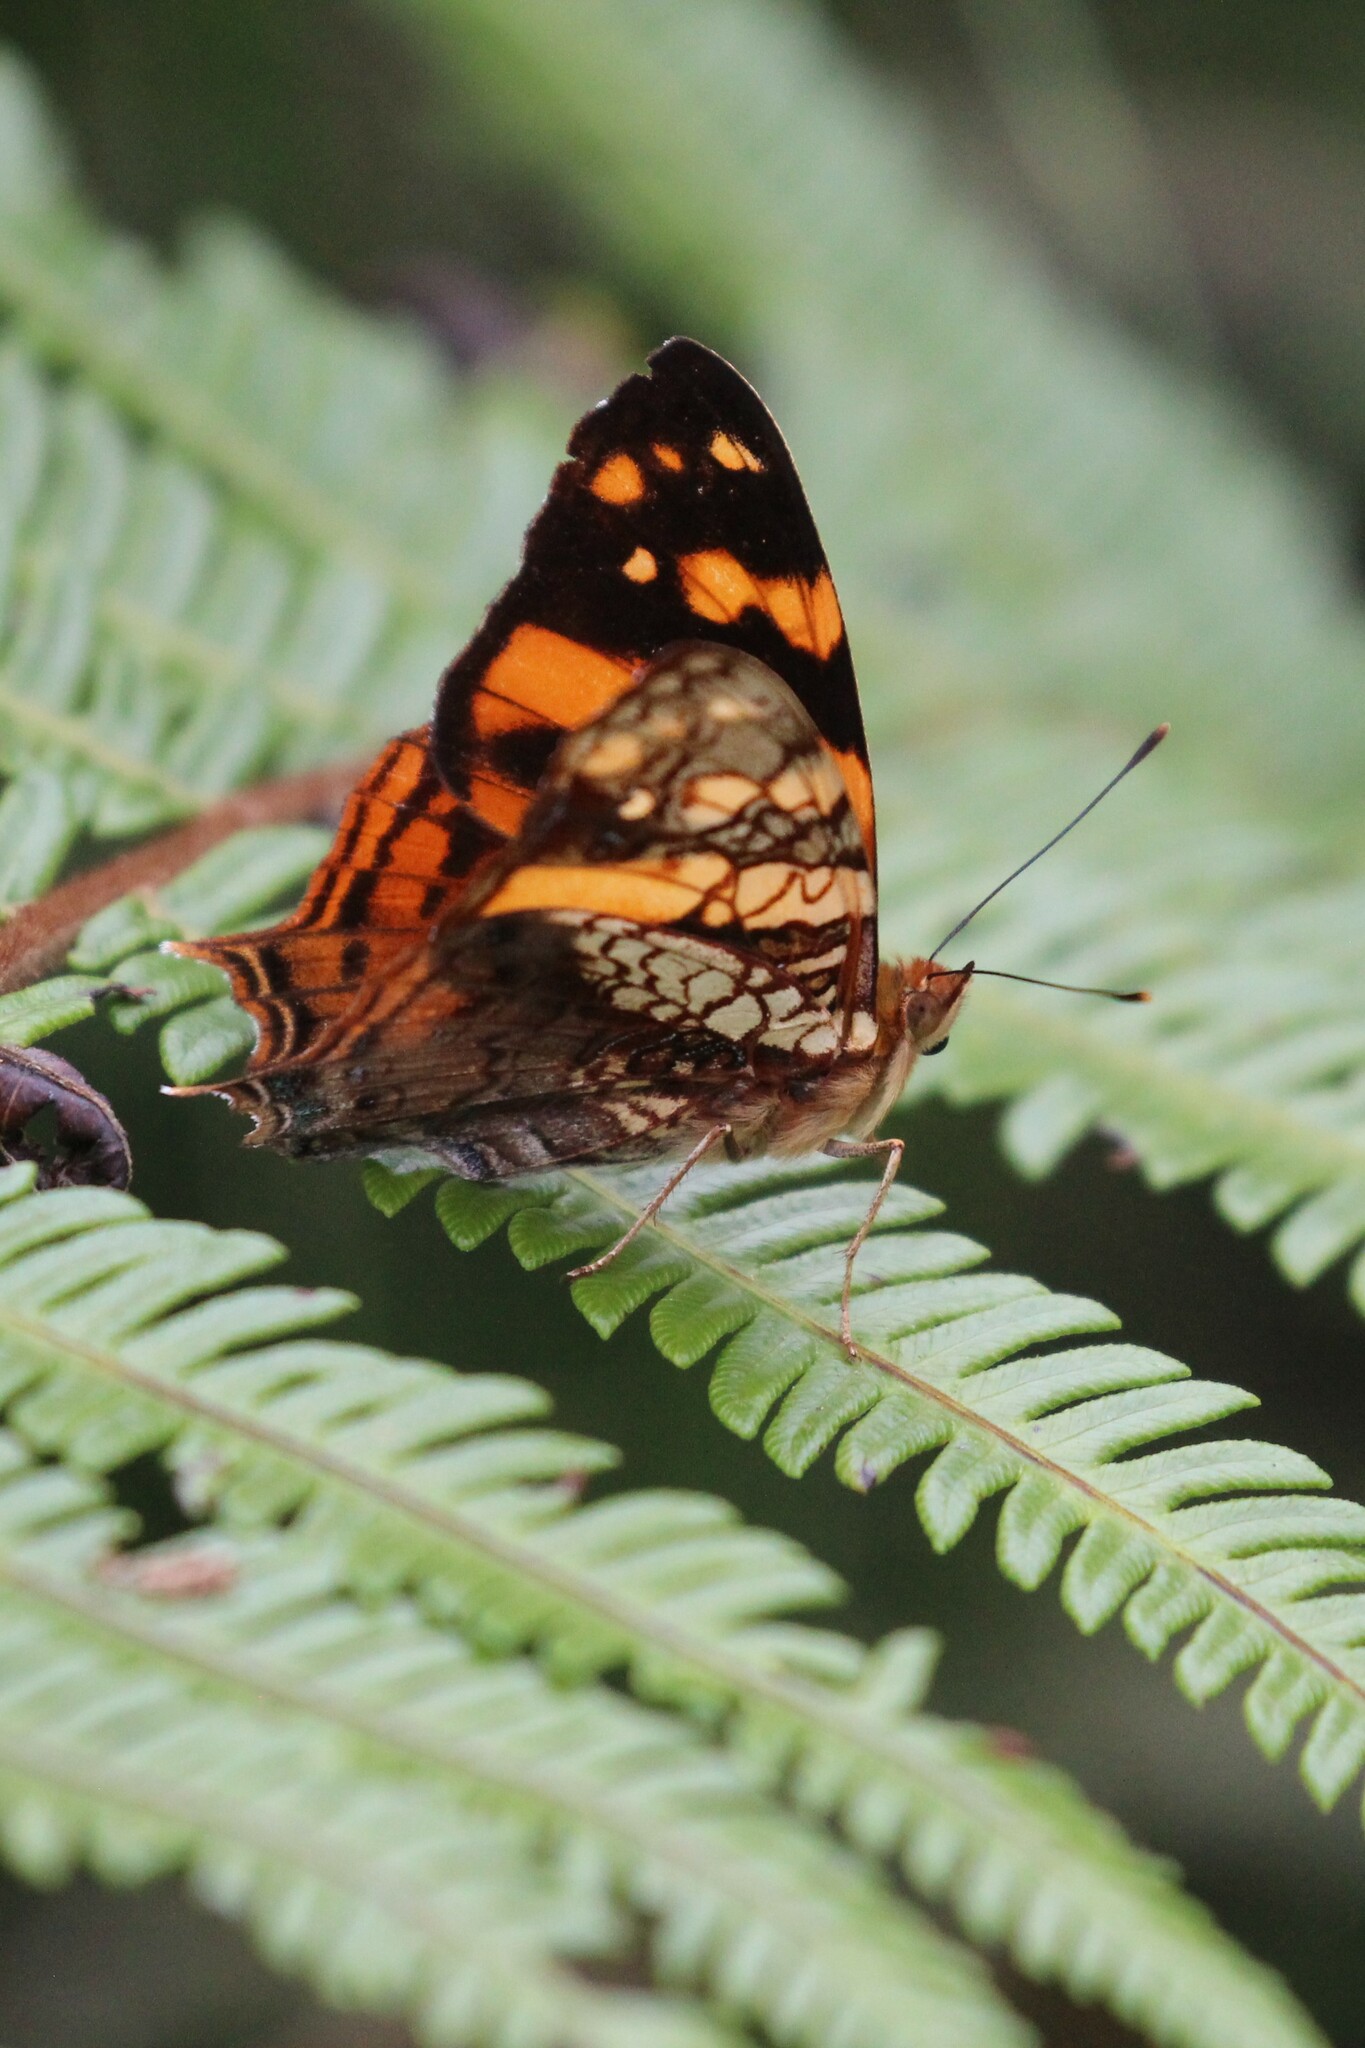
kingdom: Animalia
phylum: Arthropoda
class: Insecta
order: Lepidoptera
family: Nymphalidae
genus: Hypanartia
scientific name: Hypanartia lethe
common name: Orange mapwing
